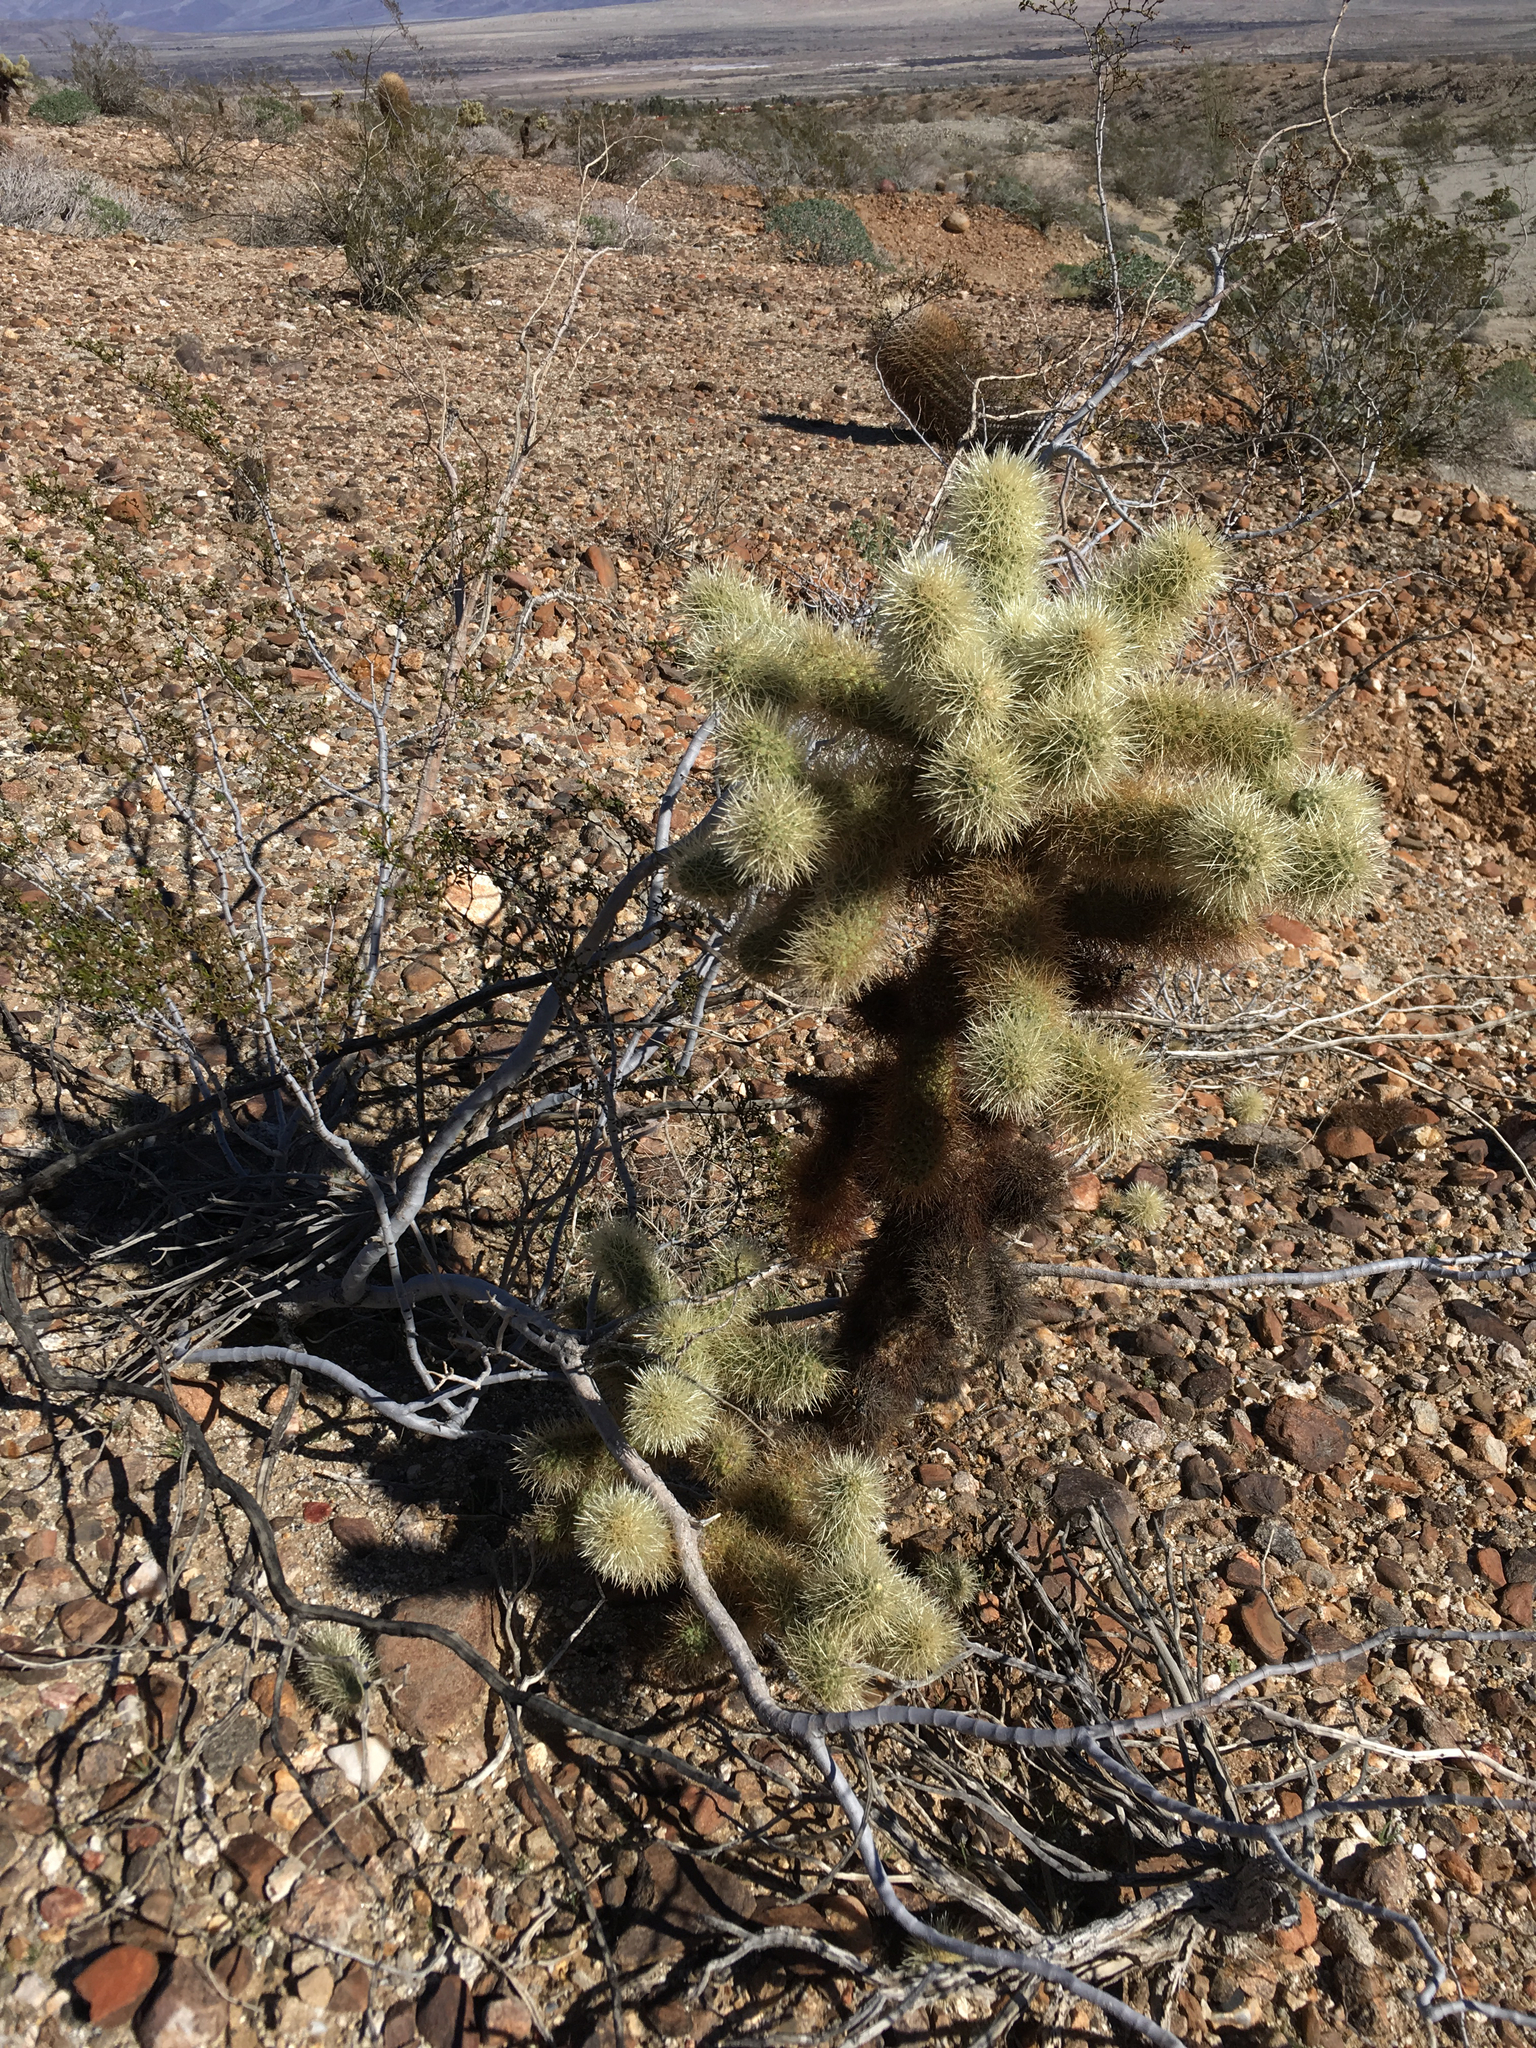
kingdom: Plantae
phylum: Tracheophyta
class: Magnoliopsida
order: Caryophyllales
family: Cactaceae
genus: Cylindropuntia
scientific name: Cylindropuntia fosbergii
